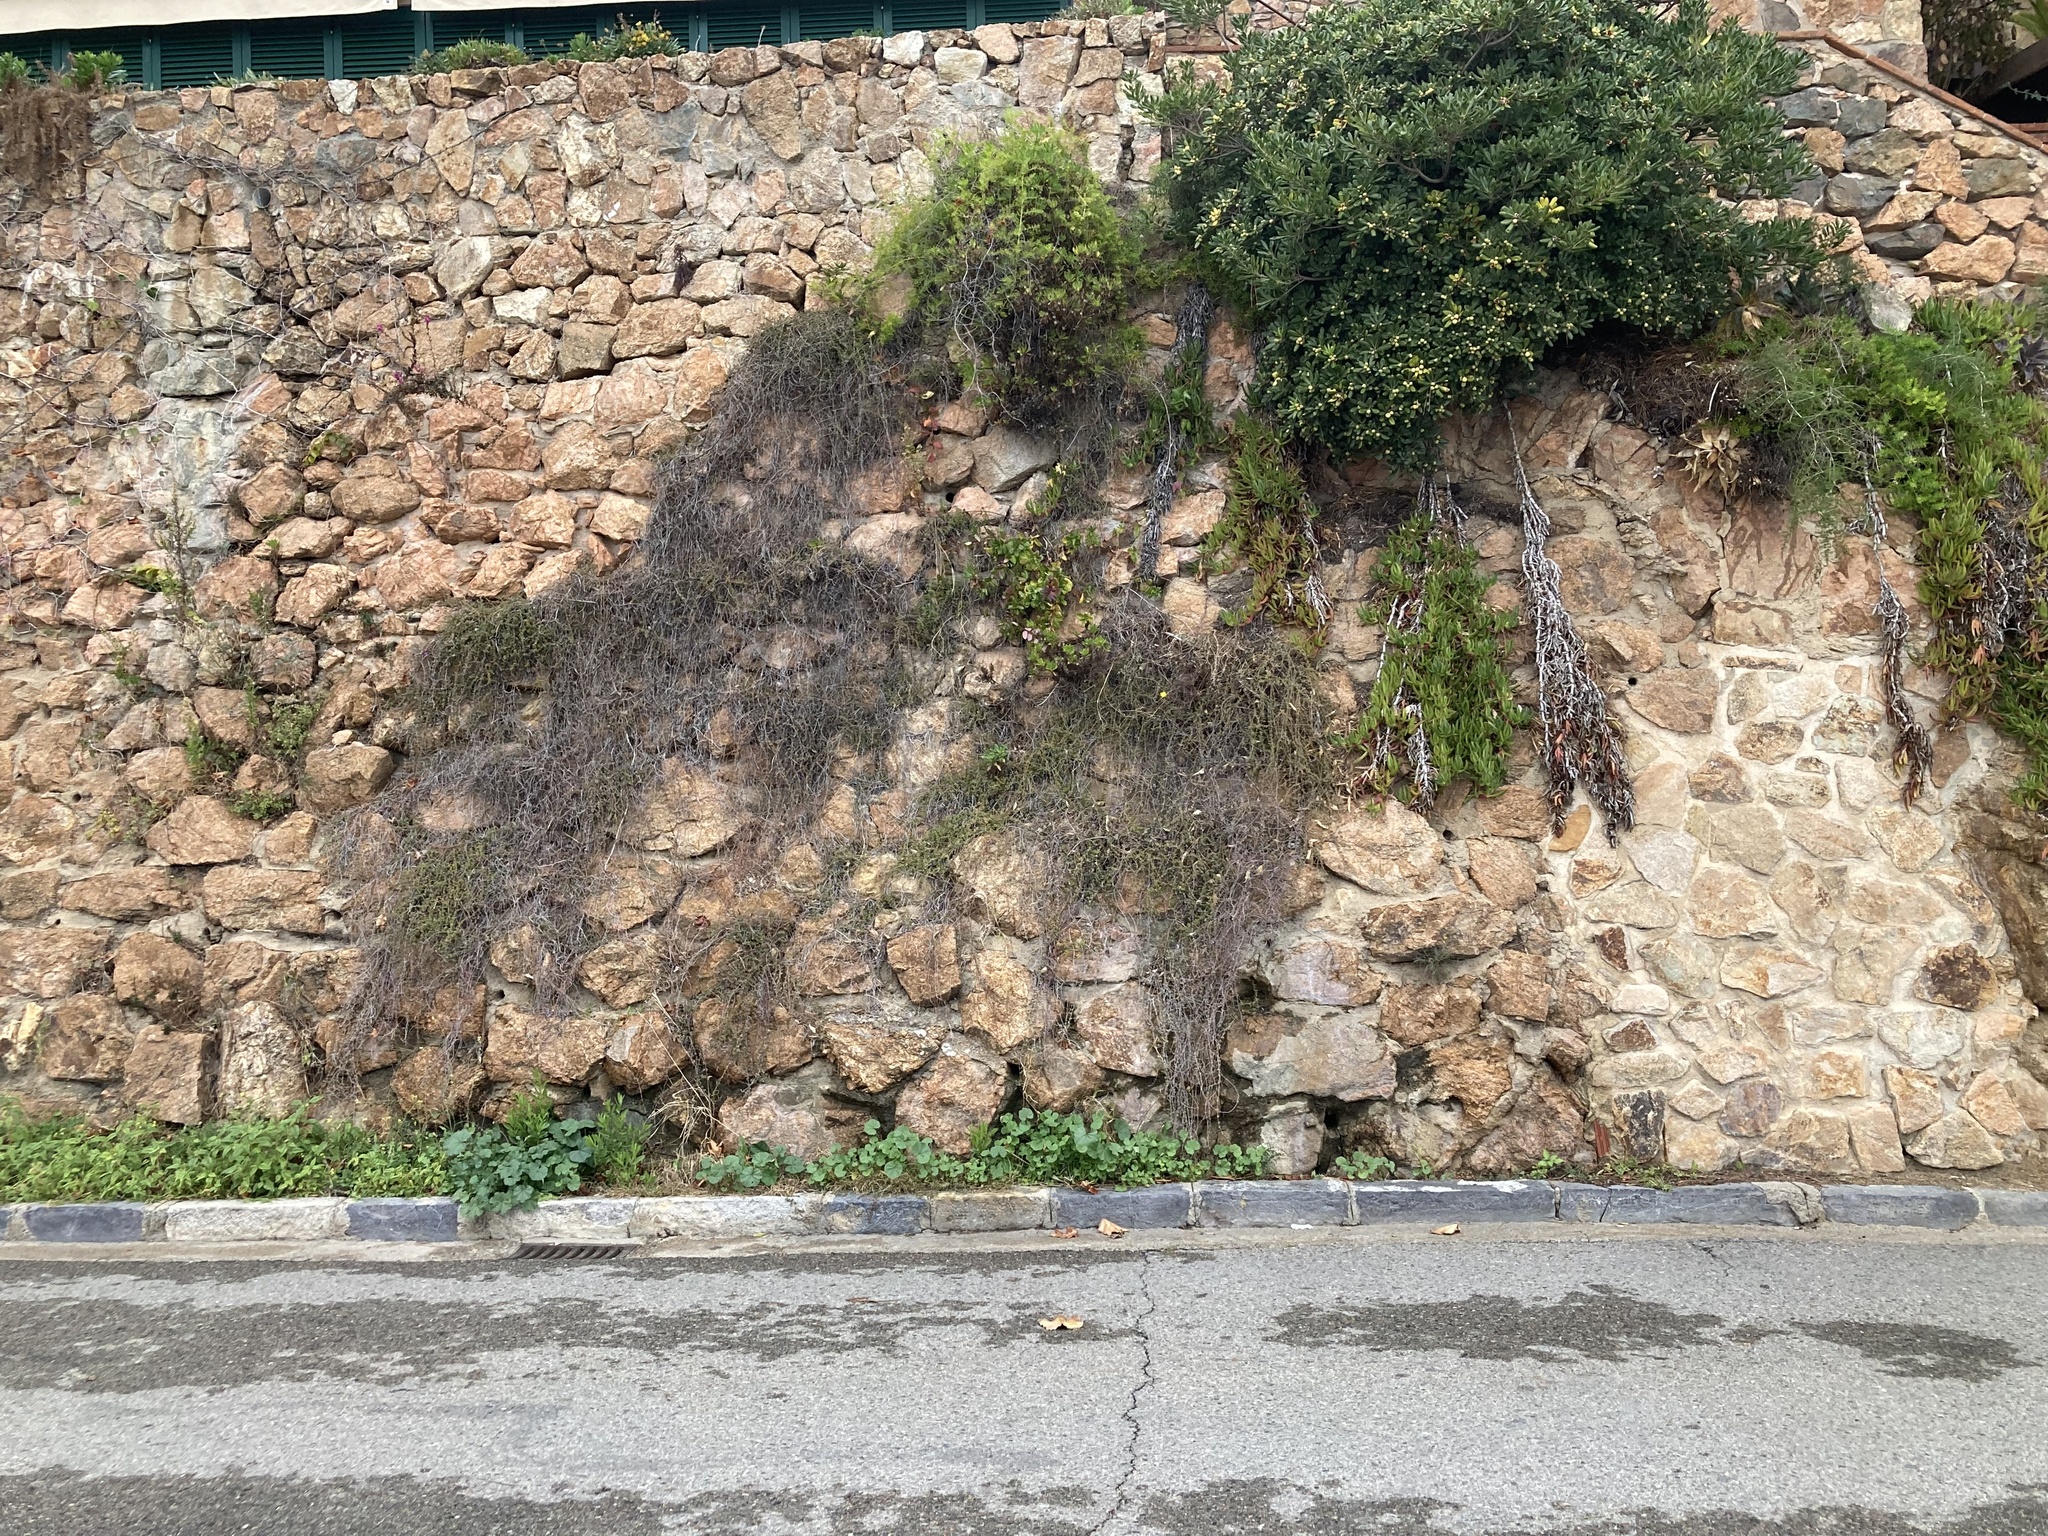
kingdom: Plantae
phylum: Tracheophyta
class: Magnoliopsida
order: Asterales
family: Asteraceae
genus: Dimorphotheca
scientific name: Dimorphotheca ecklonis
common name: Vanstaden's river daisy
